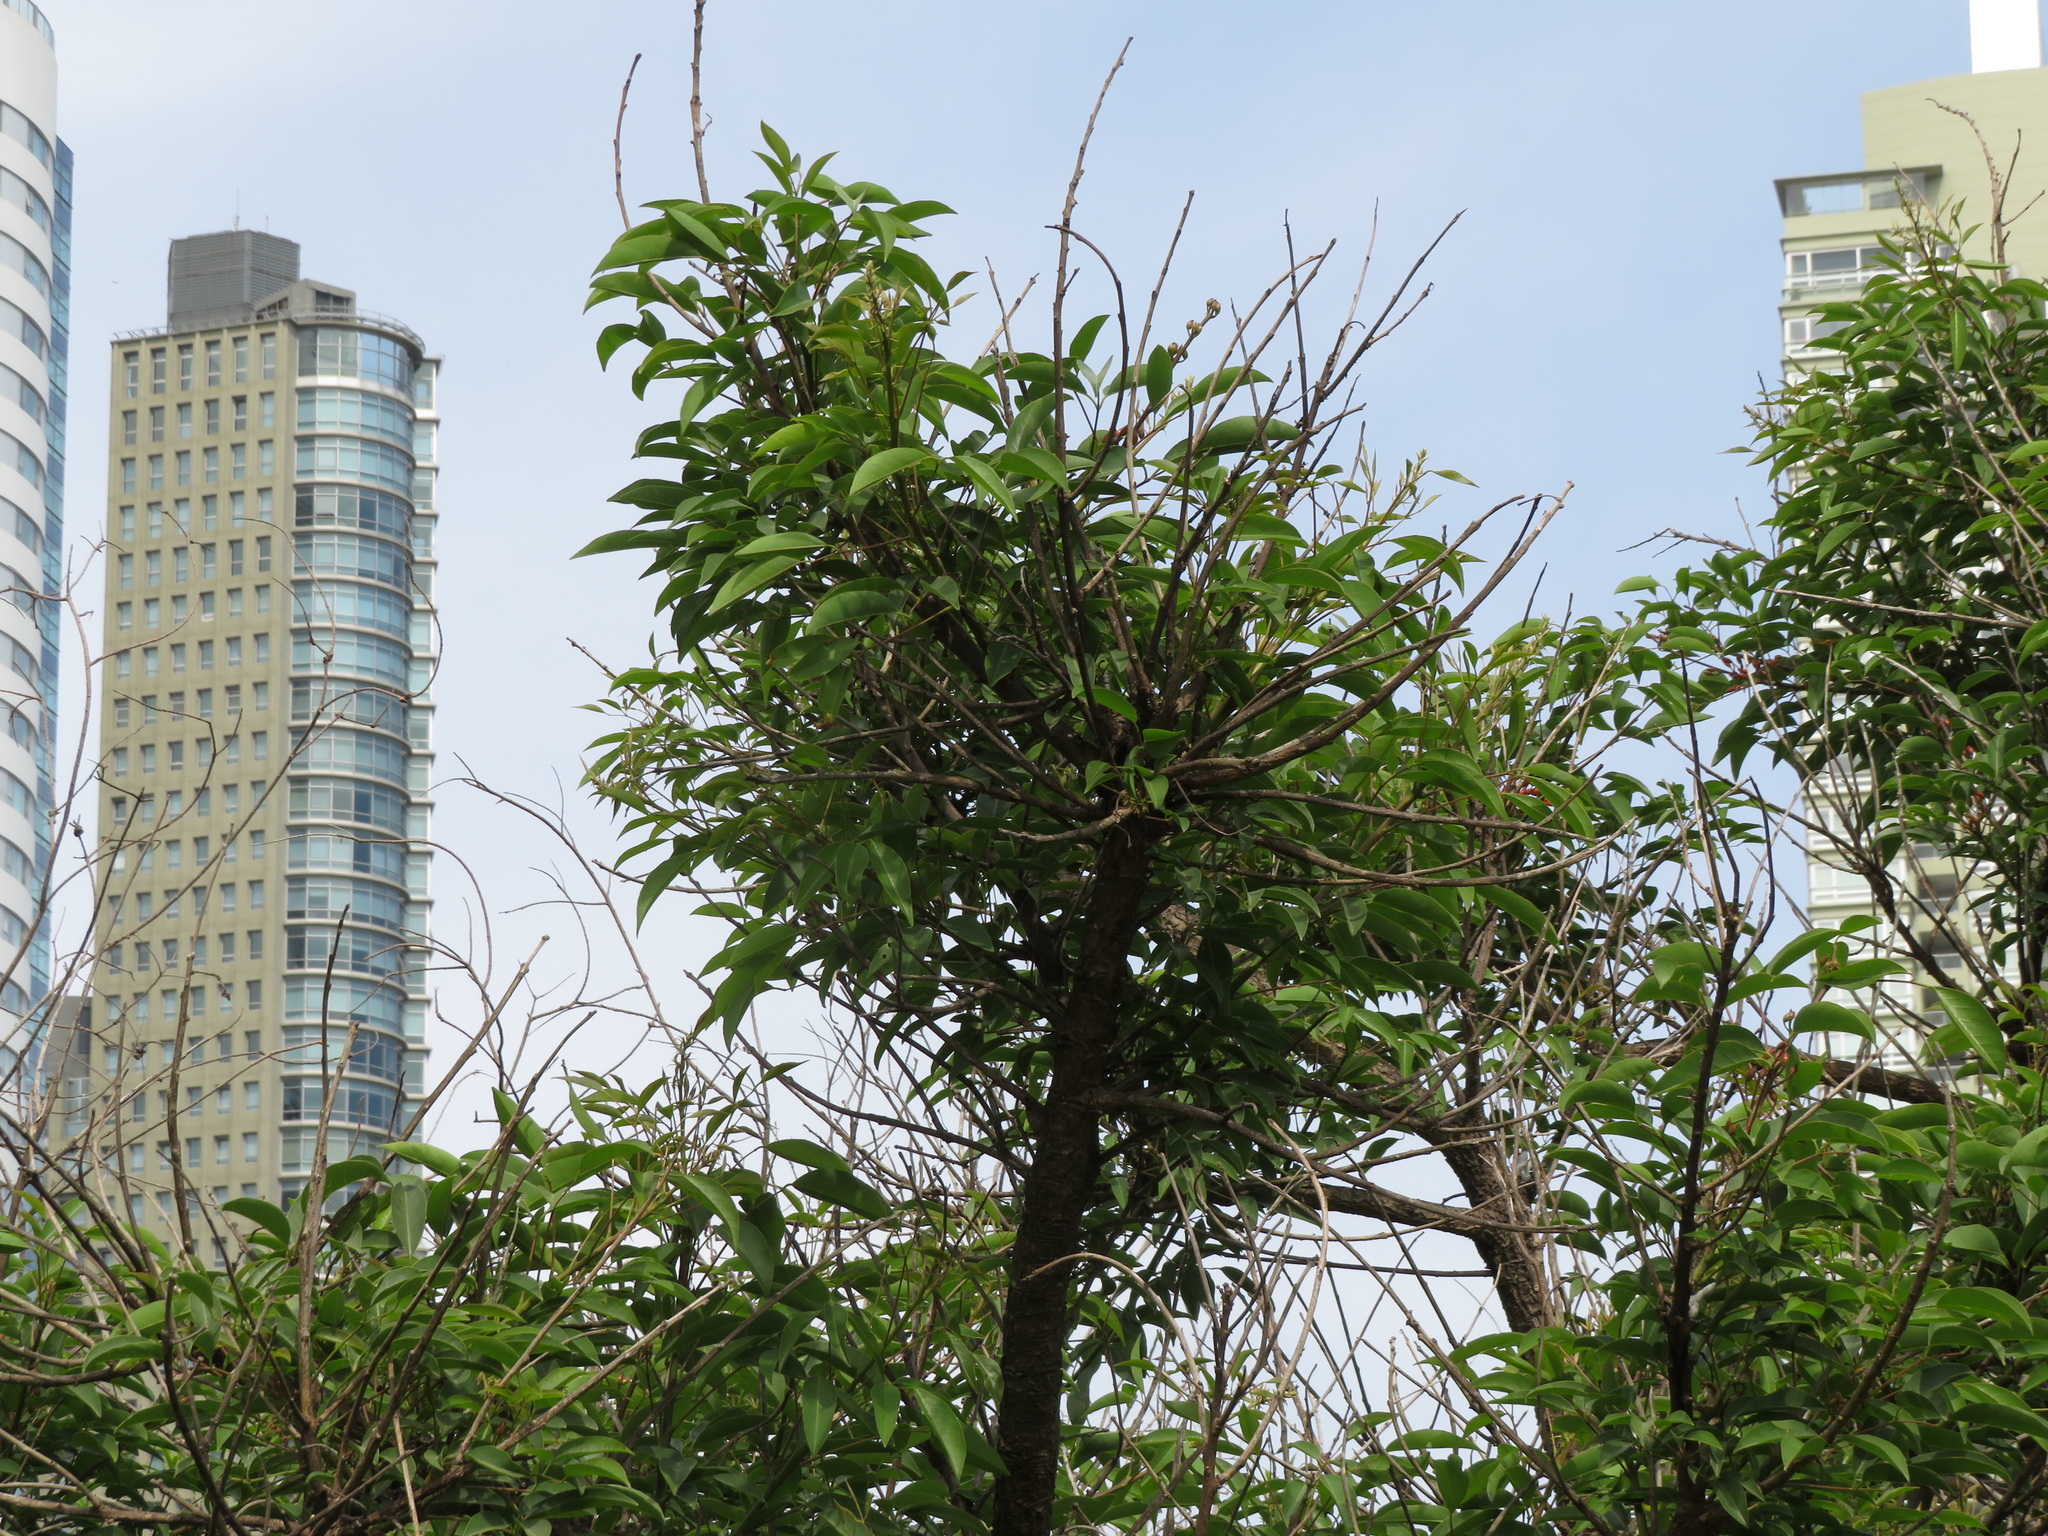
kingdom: Plantae
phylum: Tracheophyta
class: Magnoliopsida
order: Fabales
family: Fabaceae
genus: Erythrina
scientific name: Erythrina crista-galli
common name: Cockspur coral tree
